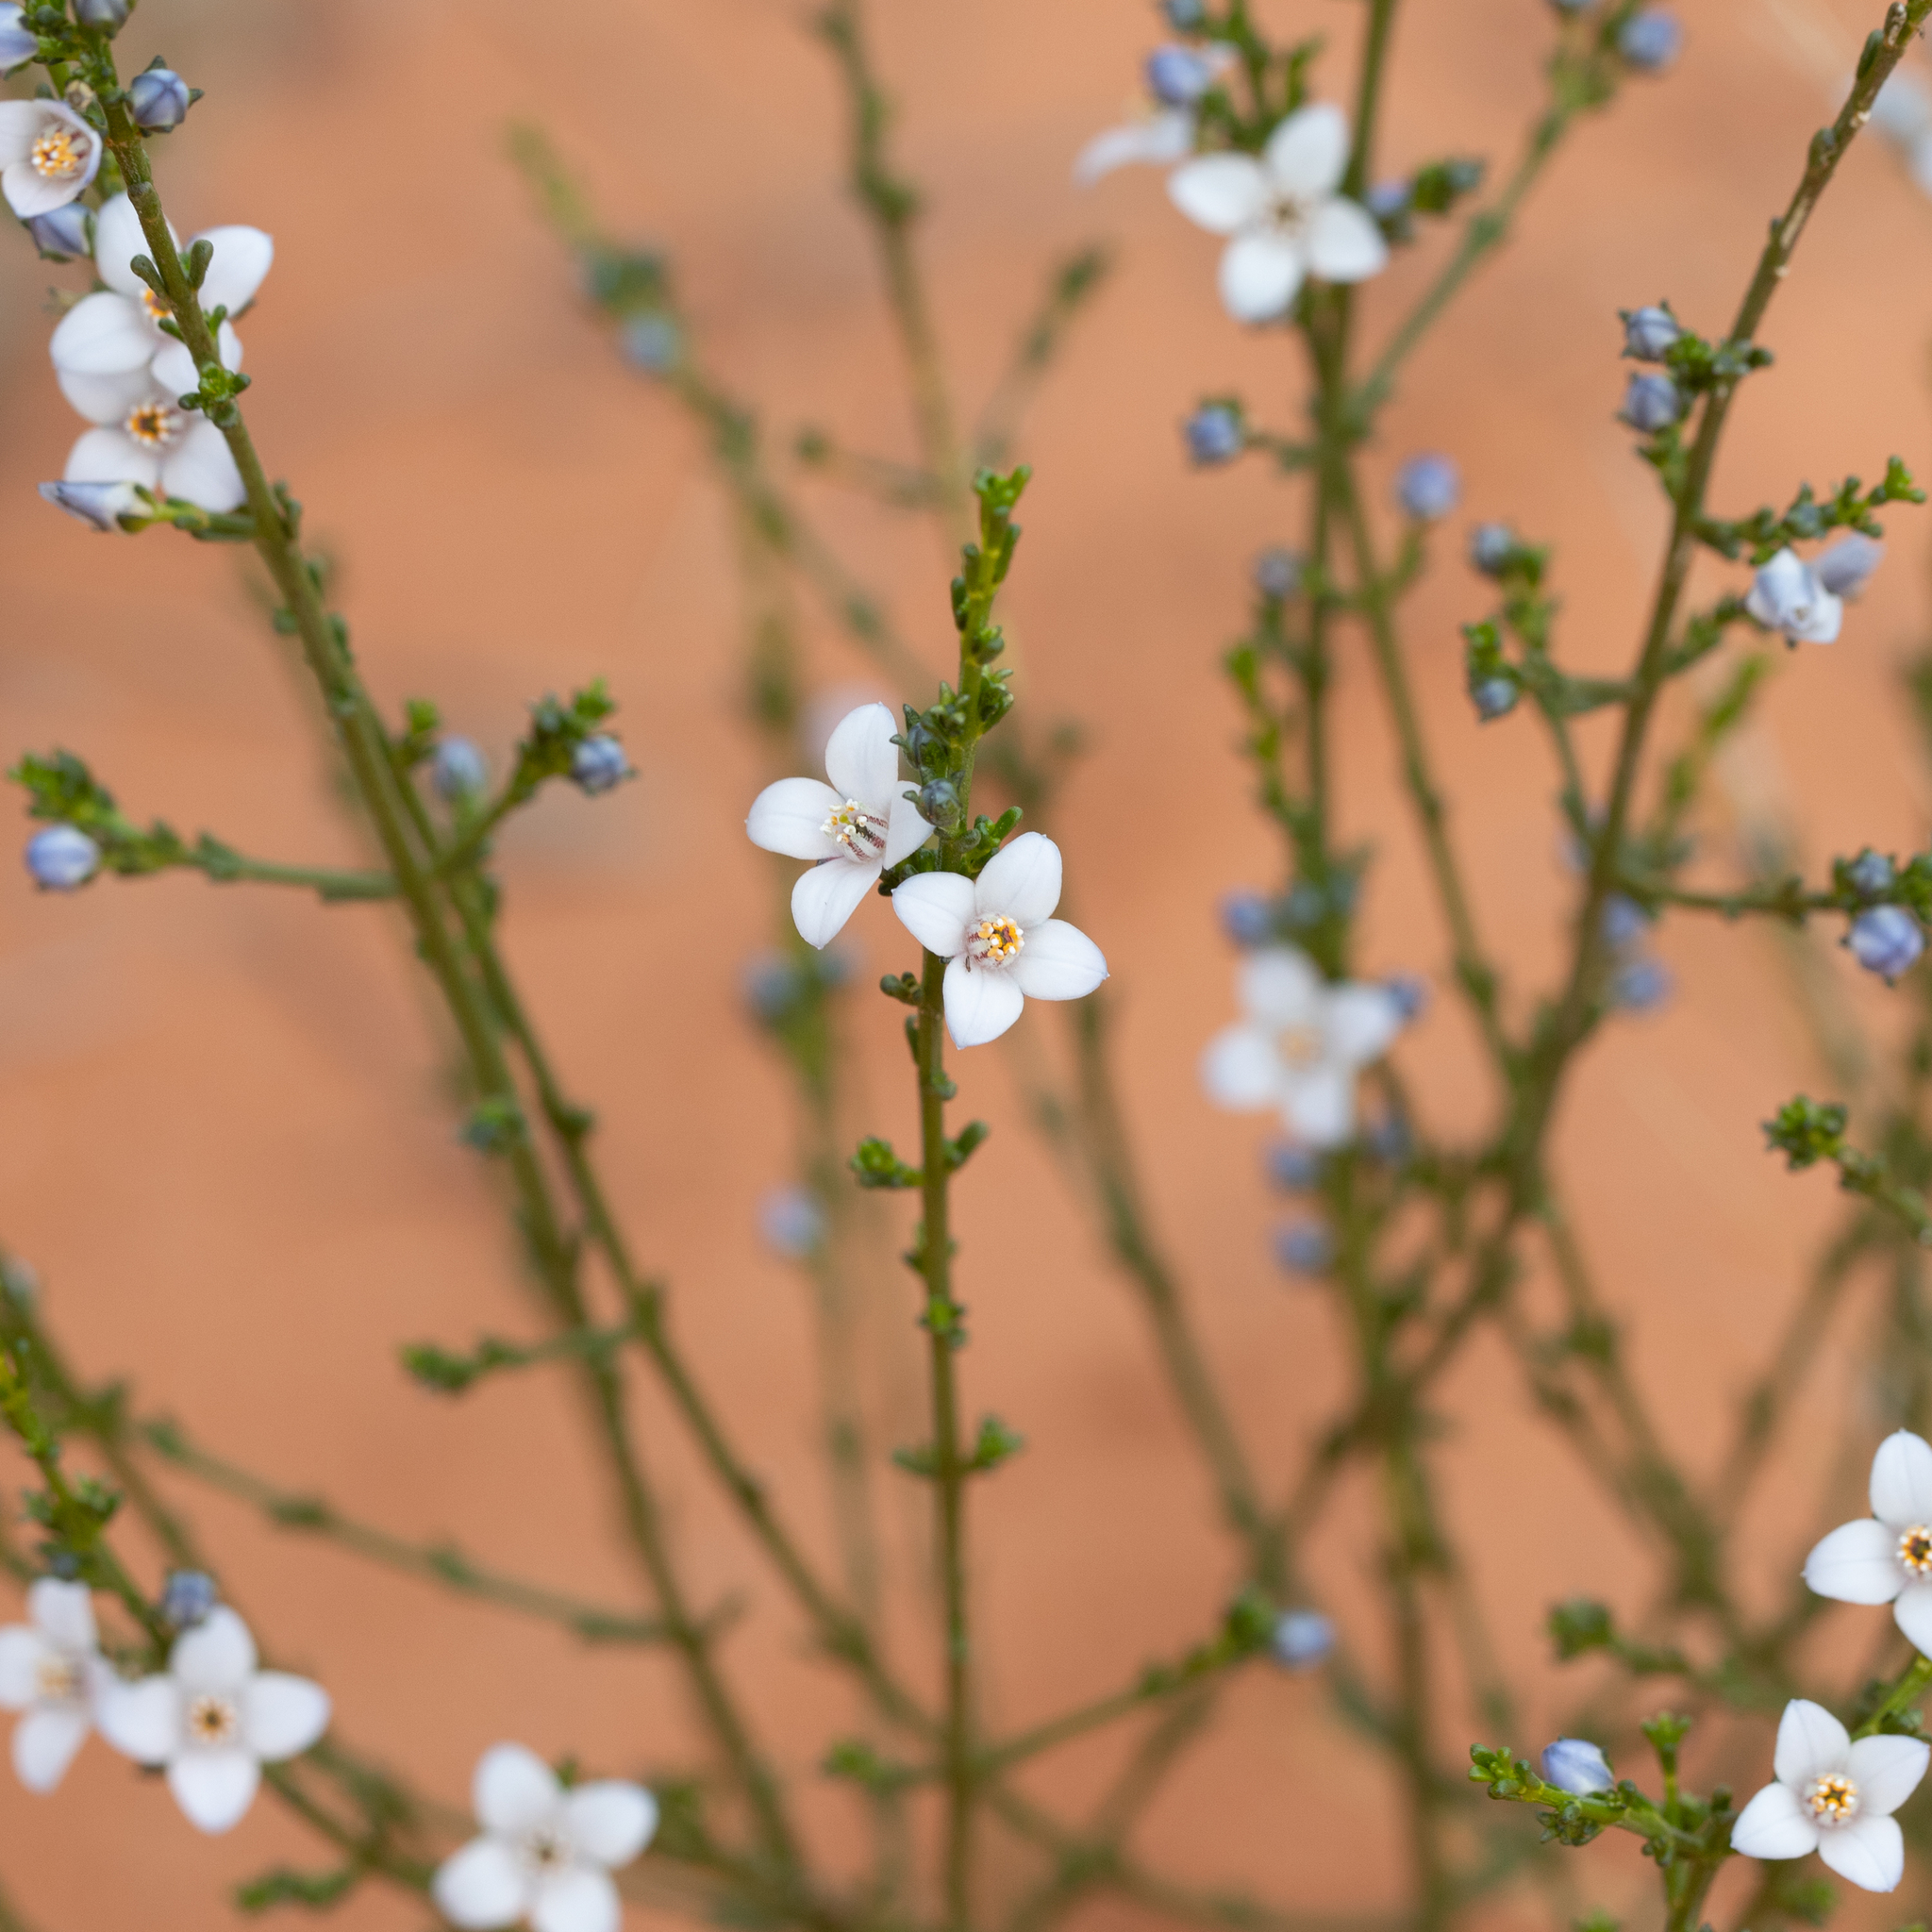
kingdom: Plantae
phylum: Tracheophyta
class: Magnoliopsida
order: Sapindales
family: Rutaceae
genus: Cyanothamnus
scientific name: Cyanothamnus coerulescens
